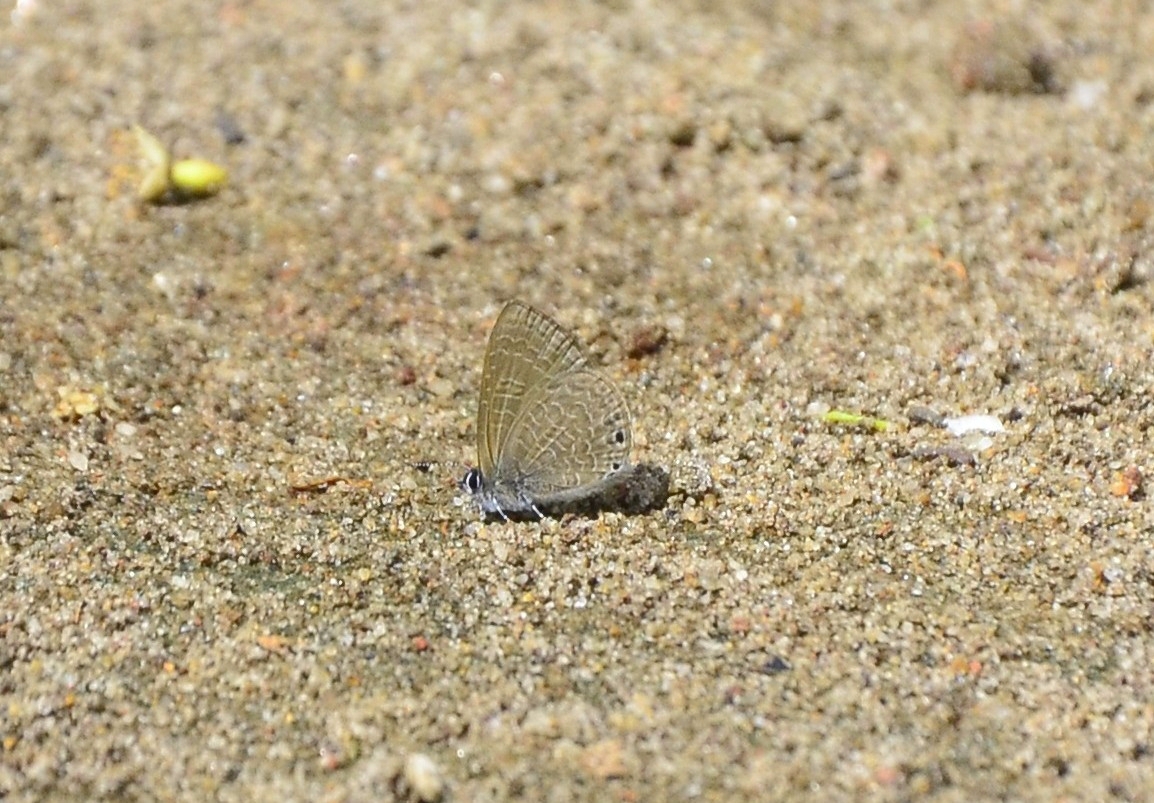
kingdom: Animalia
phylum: Arthropoda
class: Insecta
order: Lepidoptera
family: Lycaenidae
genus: Petrelaea
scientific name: Petrelaea dana
